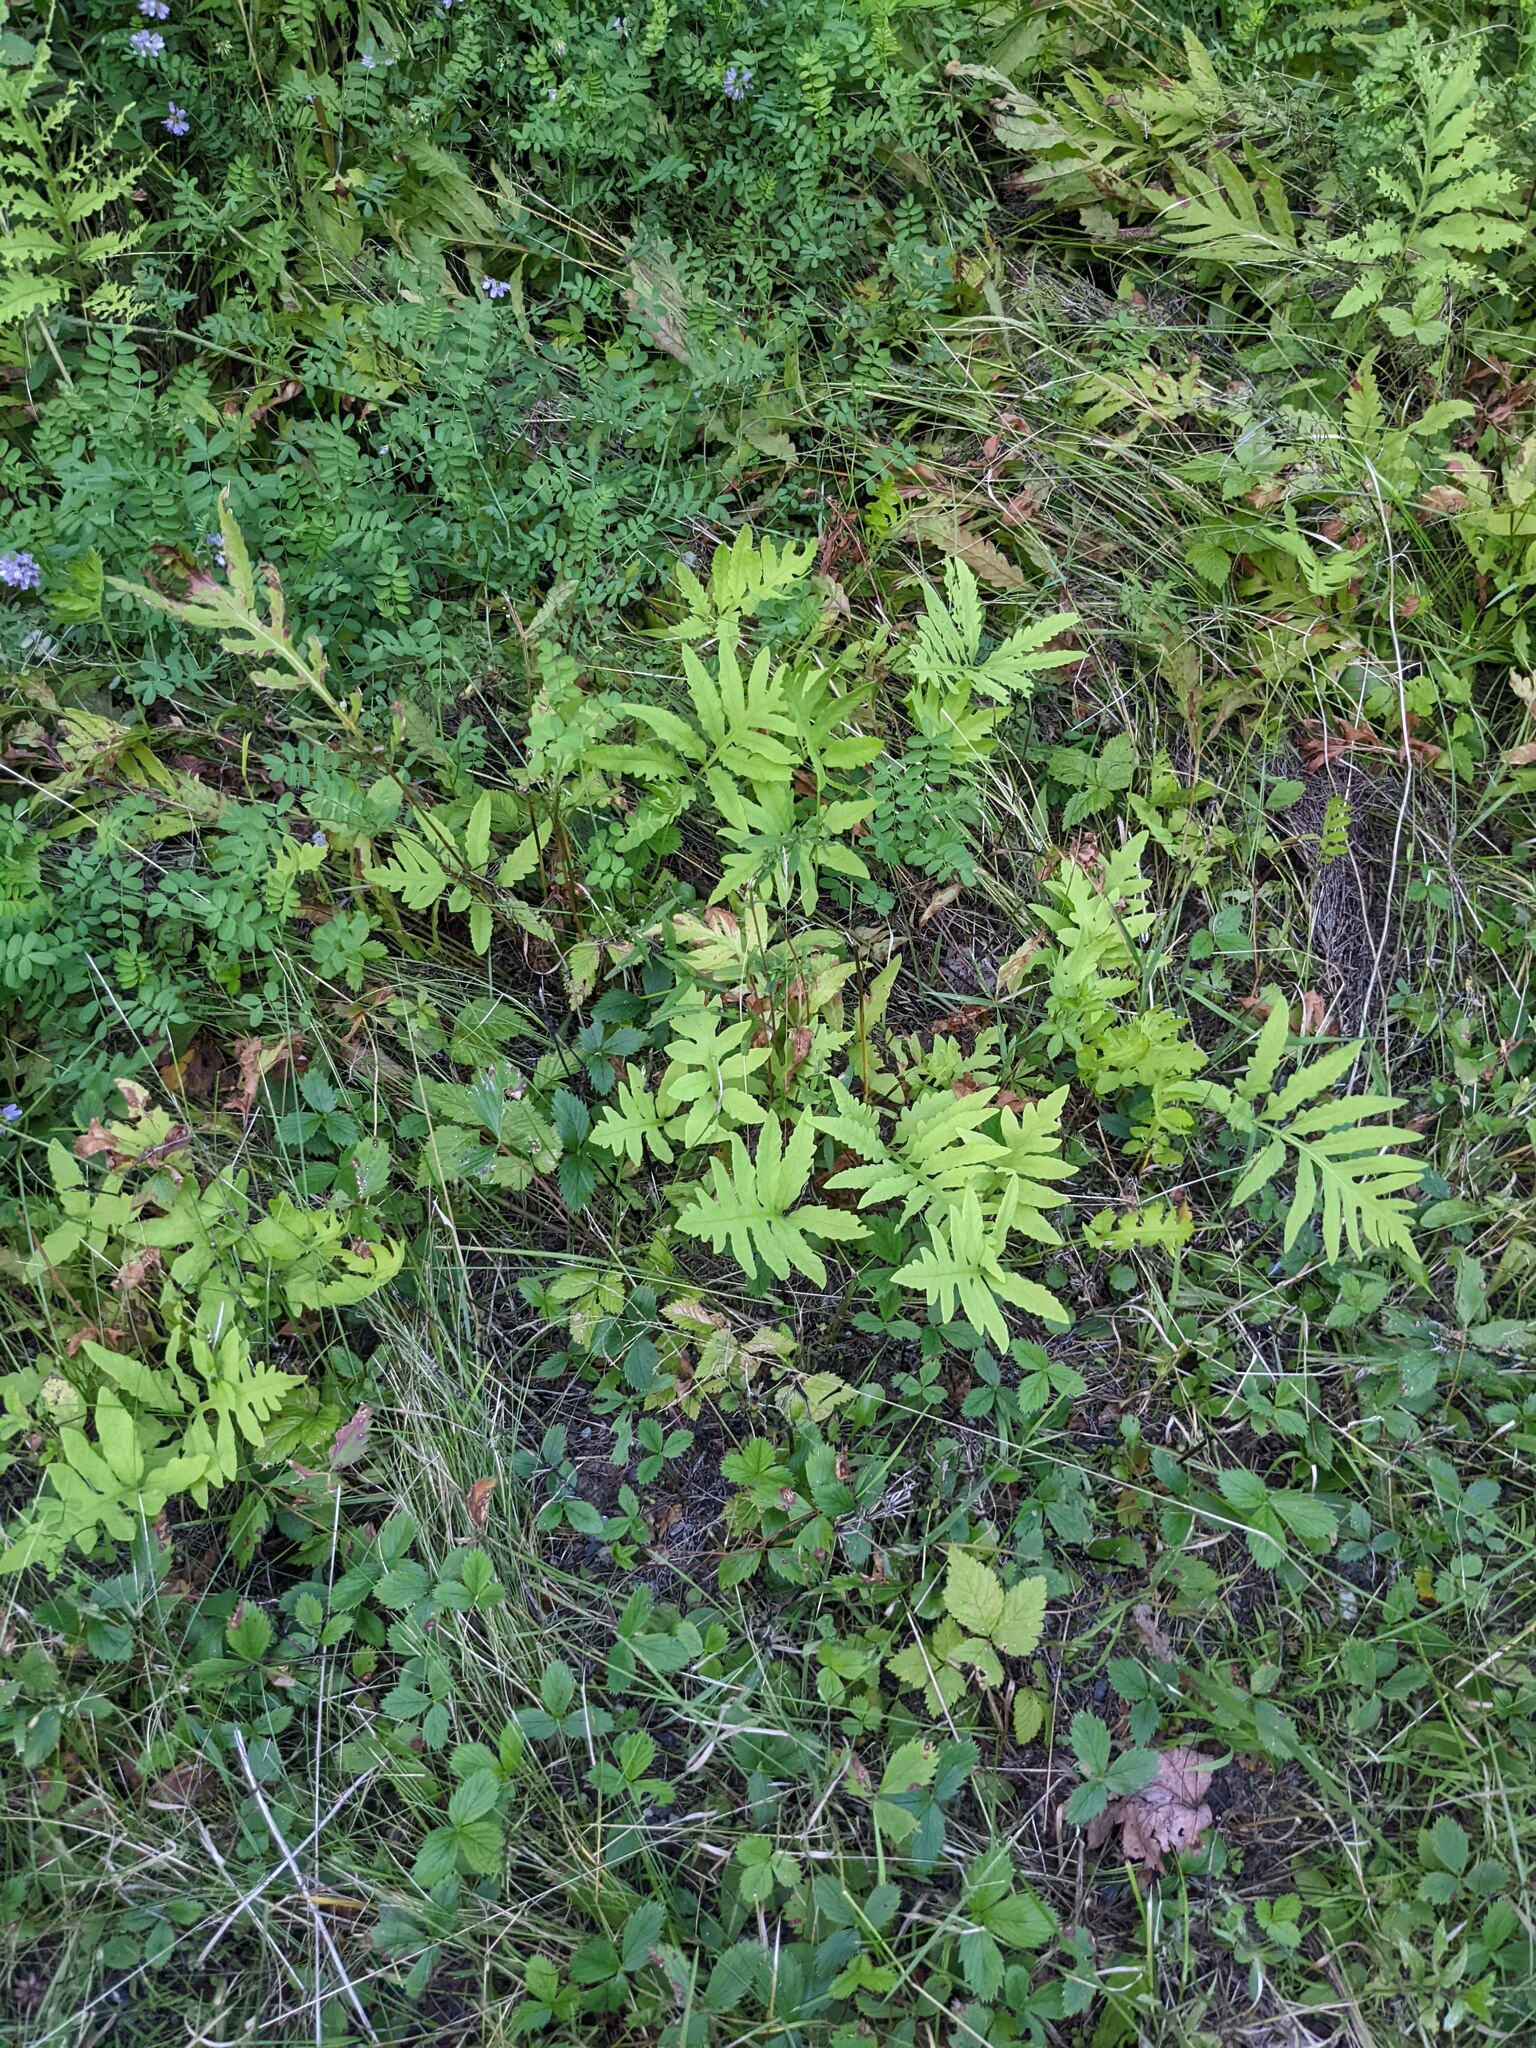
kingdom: Plantae
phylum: Tracheophyta
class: Polypodiopsida
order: Polypodiales
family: Onocleaceae
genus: Onoclea
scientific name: Onoclea sensibilis
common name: Sensitive fern
